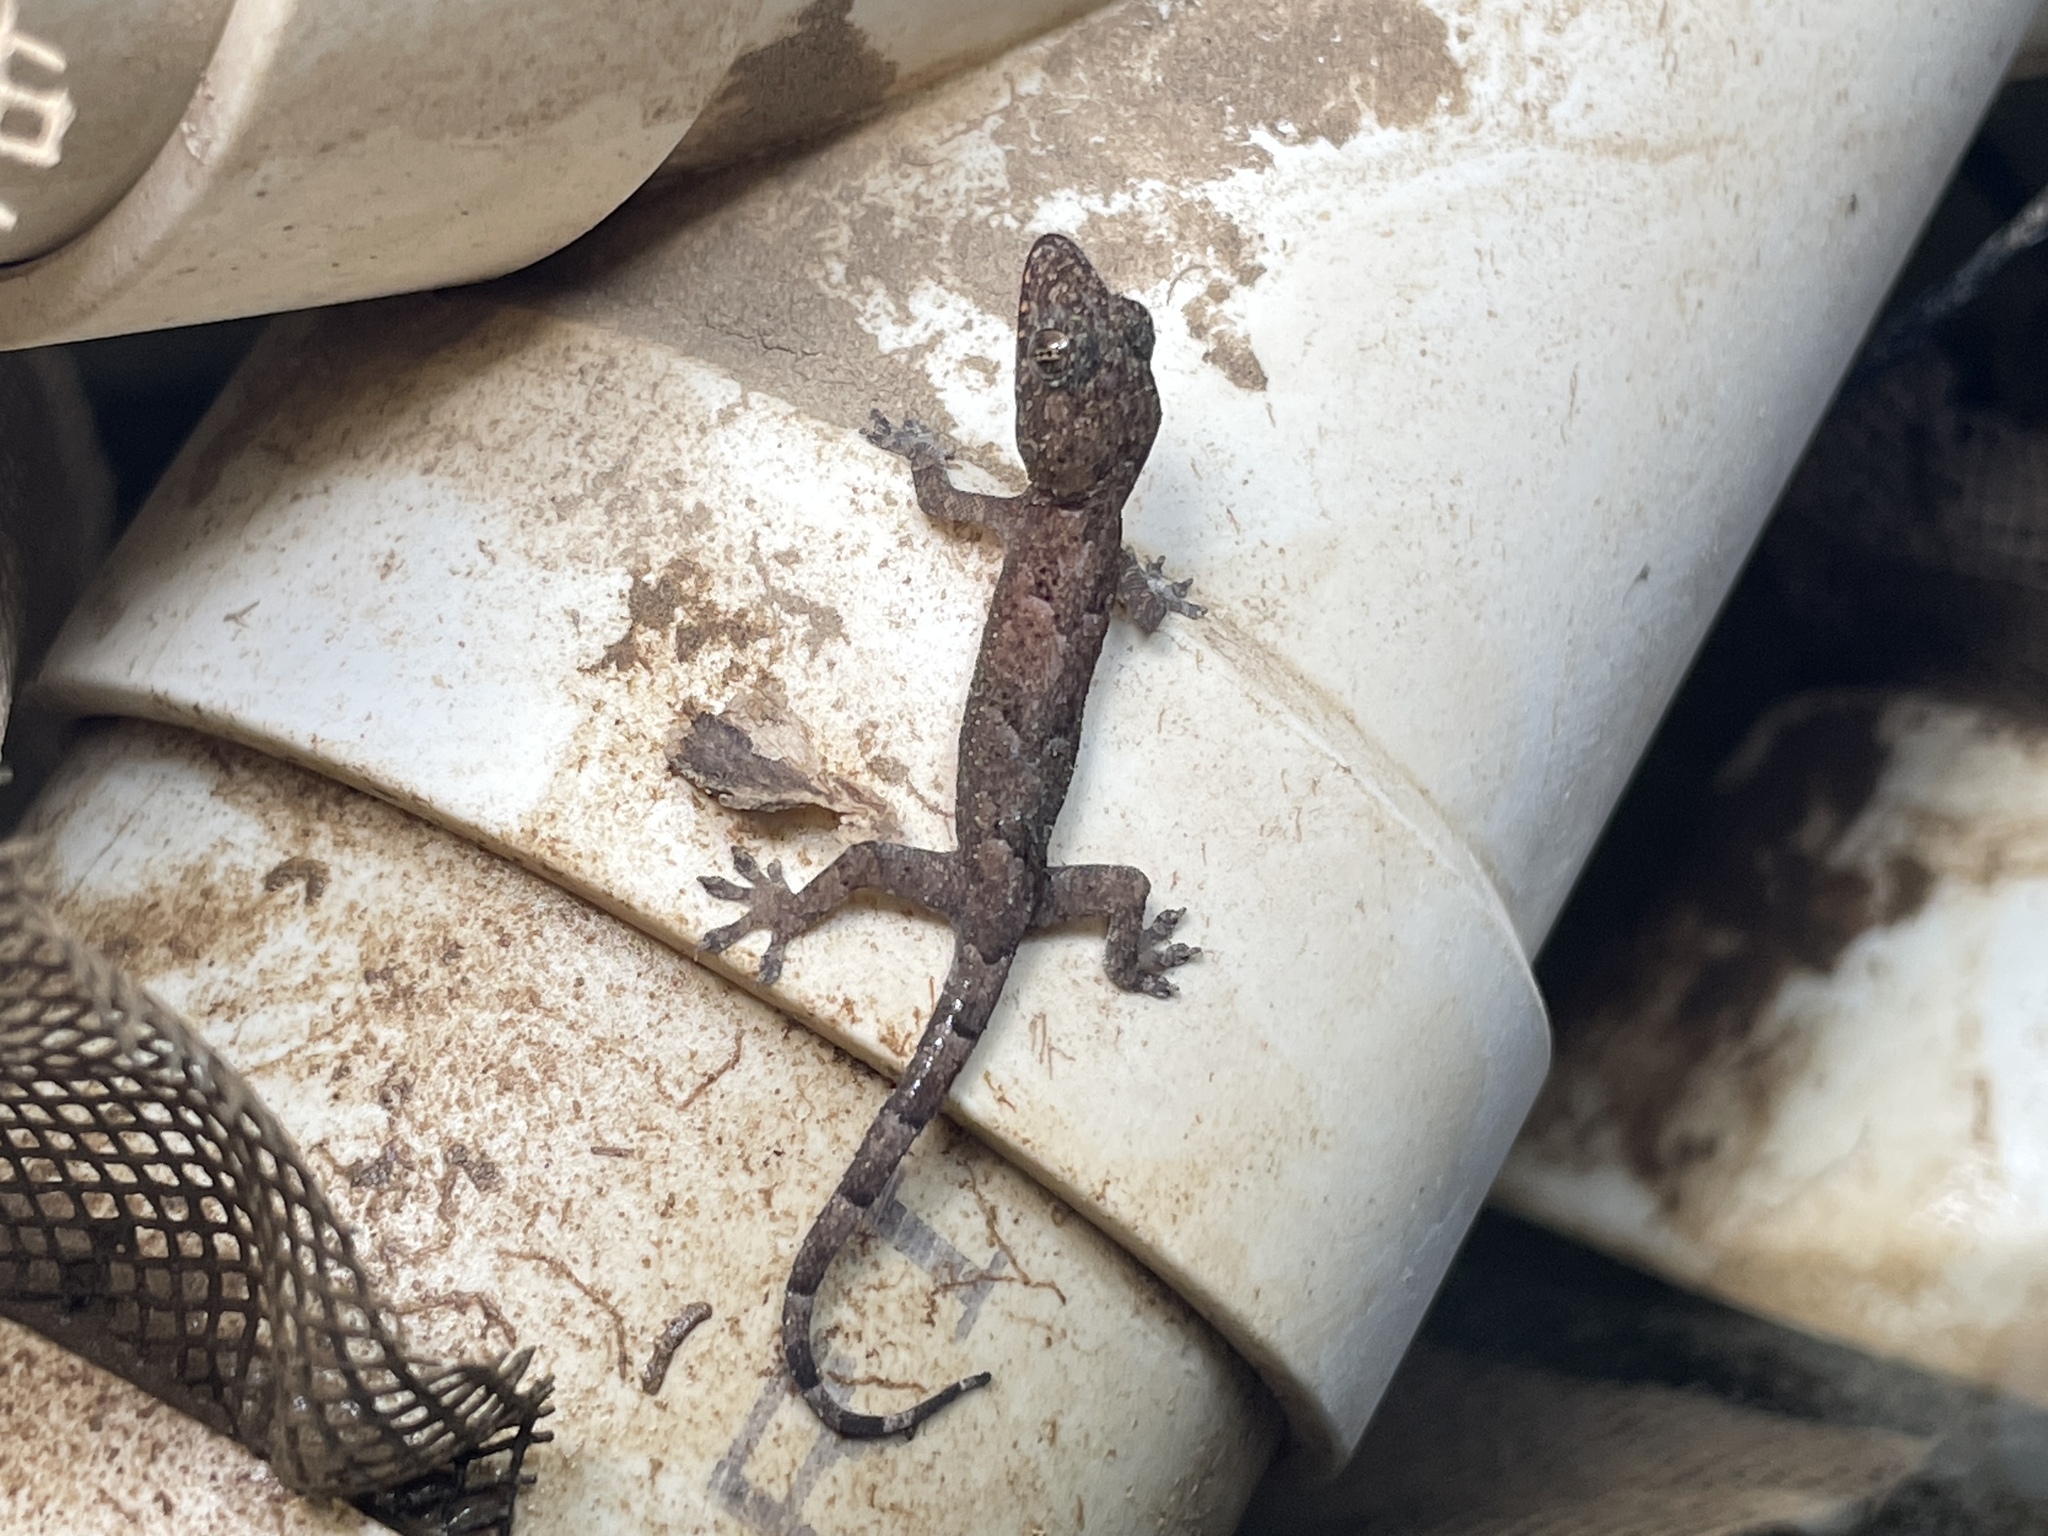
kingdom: Animalia
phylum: Chordata
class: Squamata
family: Gekkonidae
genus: Hemidactylus
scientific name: Hemidactylus mabouia
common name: House gecko
